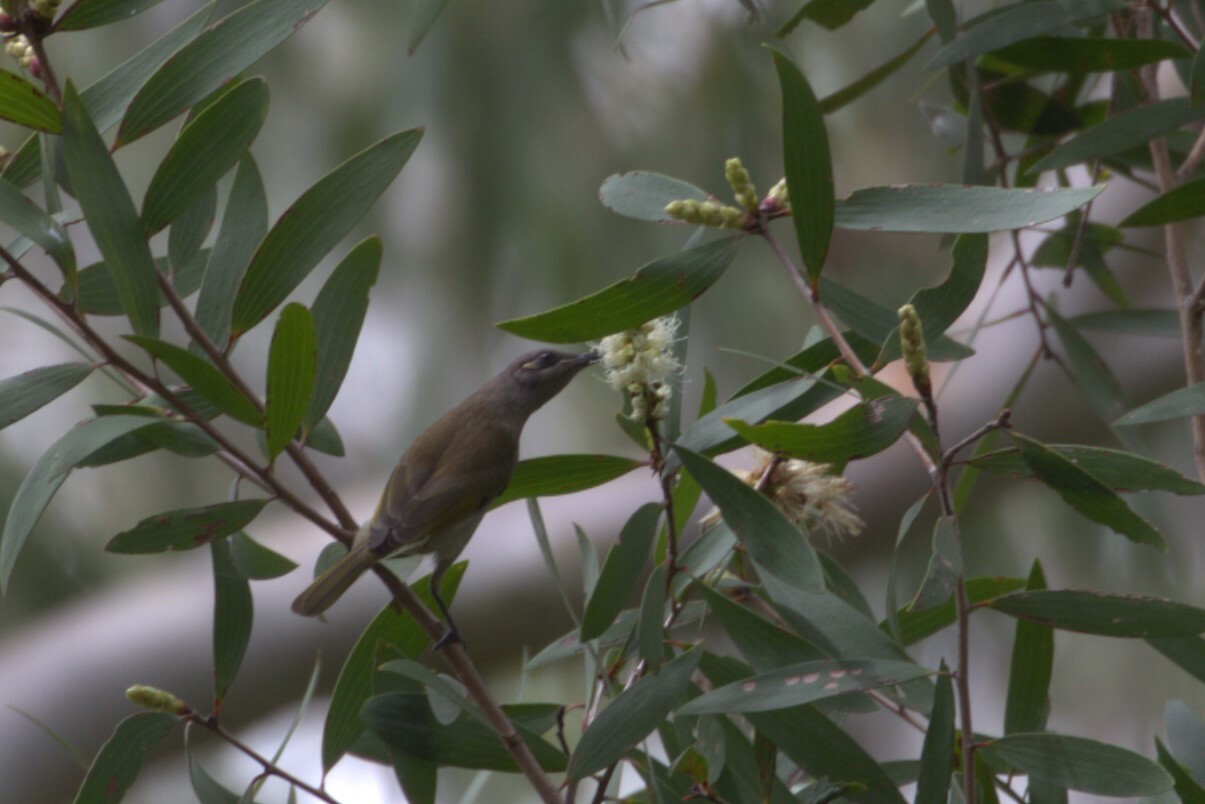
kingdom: Animalia
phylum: Chordata
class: Aves
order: Passeriformes
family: Meliphagidae
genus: Lichmera
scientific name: Lichmera indistincta
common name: Brown honeyeater
